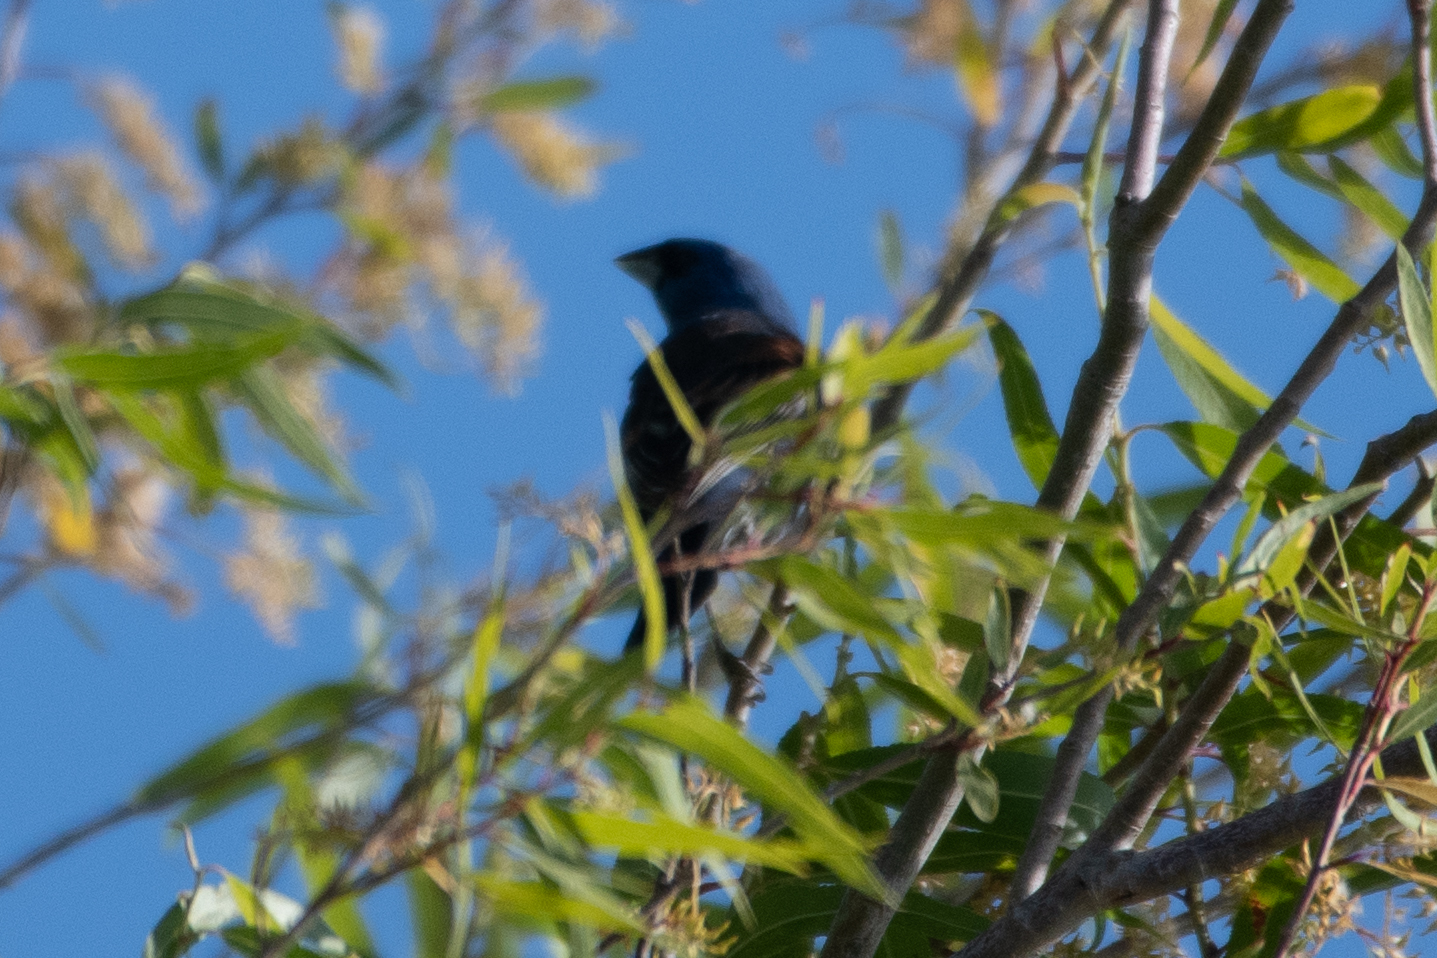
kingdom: Animalia
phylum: Chordata
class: Aves
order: Passeriformes
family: Cardinalidae
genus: Passerina
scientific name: Passerina caerulea
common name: Blue grosbeak
